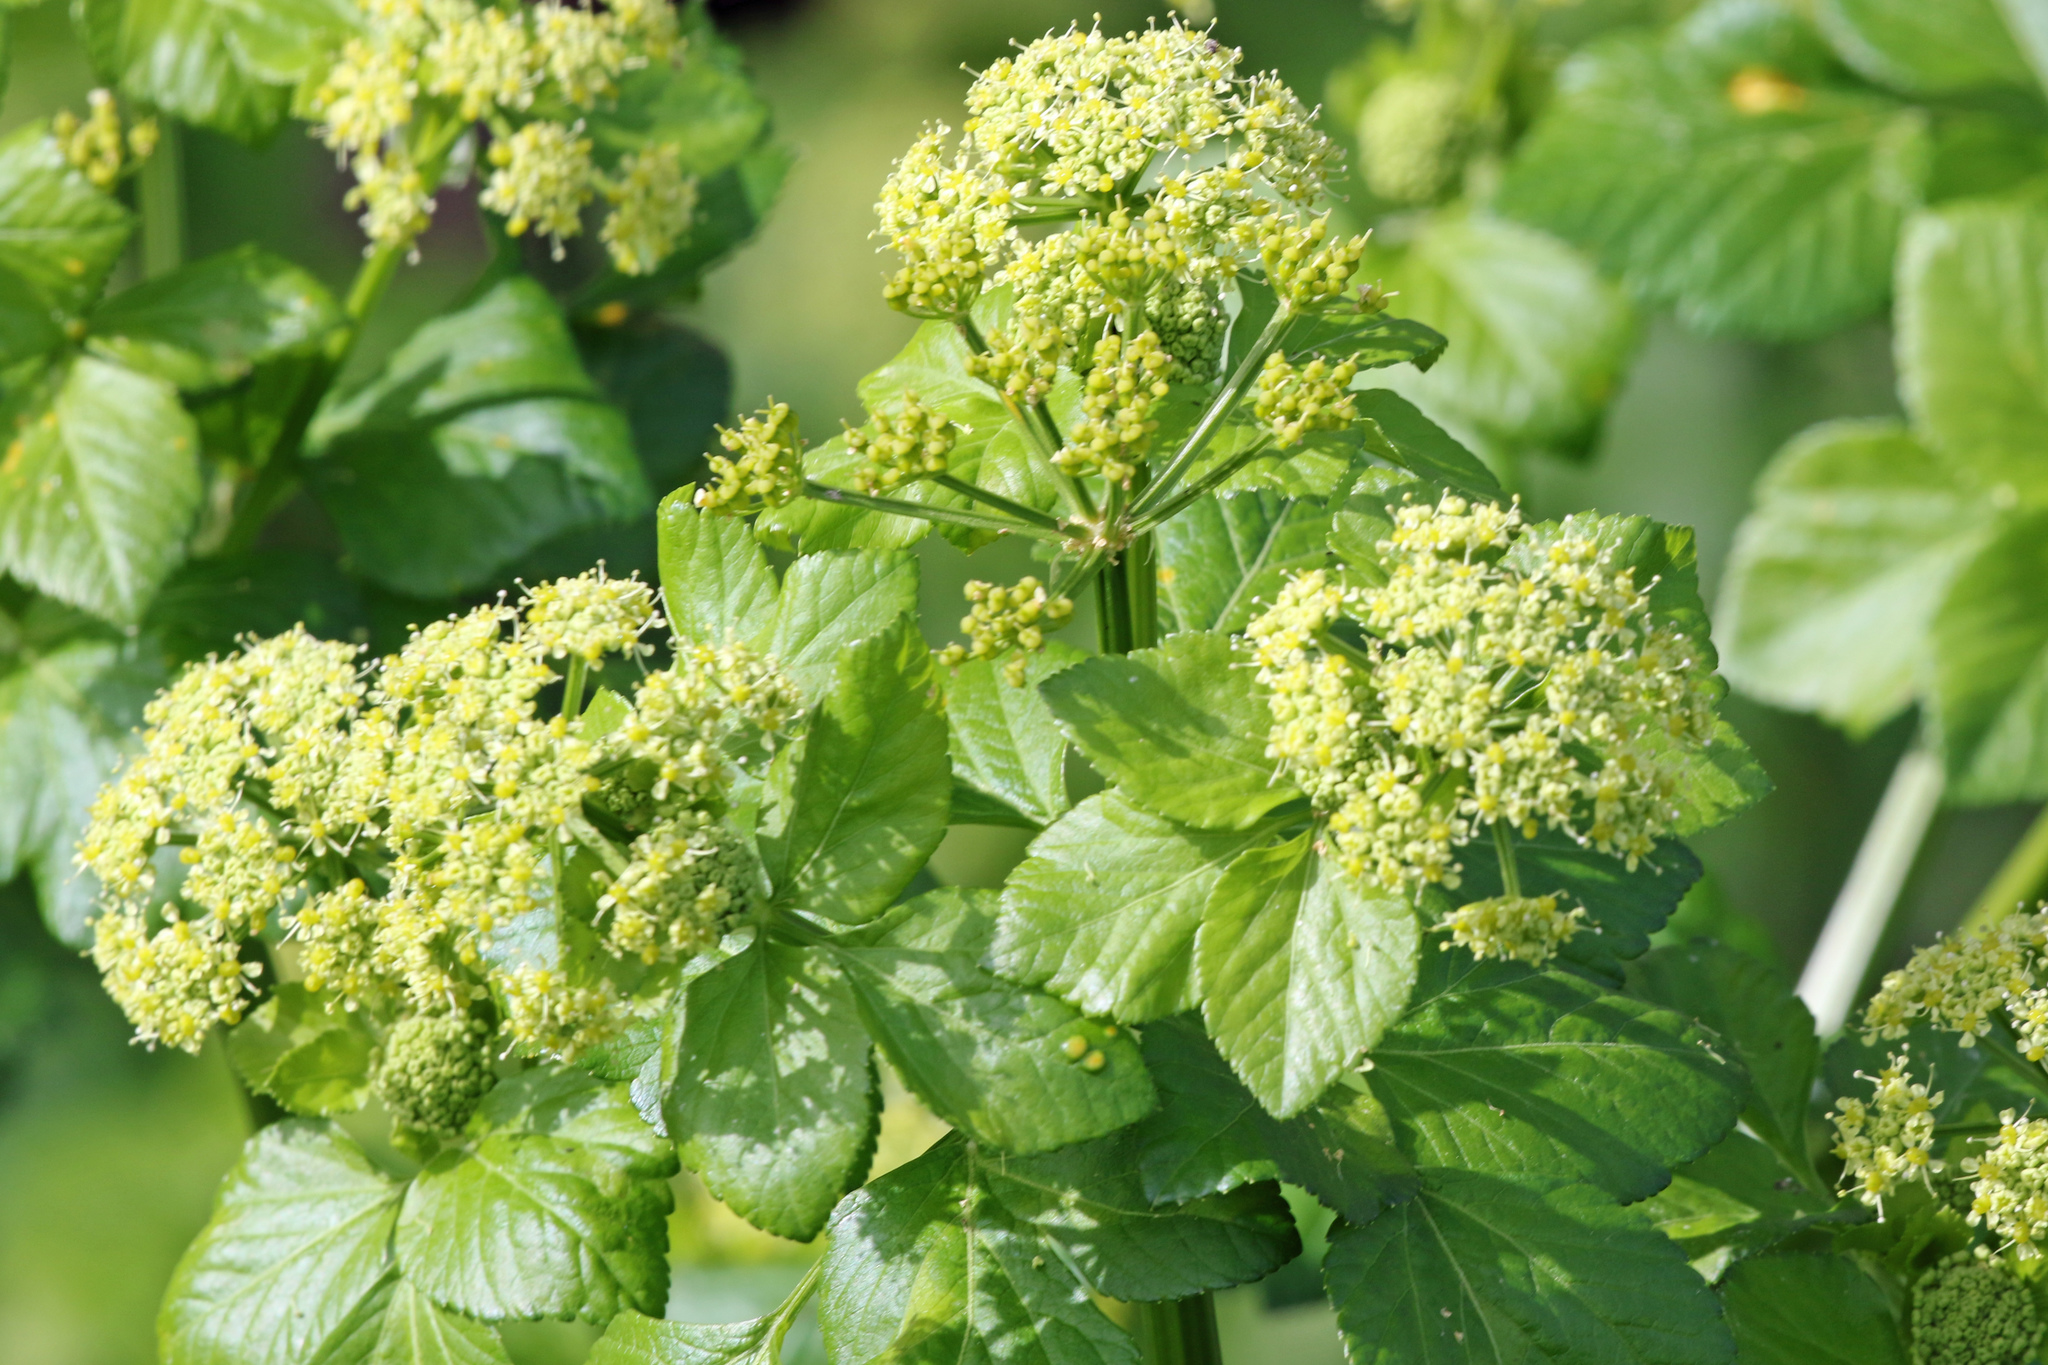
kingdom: Plantae
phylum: Tracheophyta
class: Magnoliopsida
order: Apiales
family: Apiaceae
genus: Smyrnium
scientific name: Smyrnium olusatrum
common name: Alexanders
